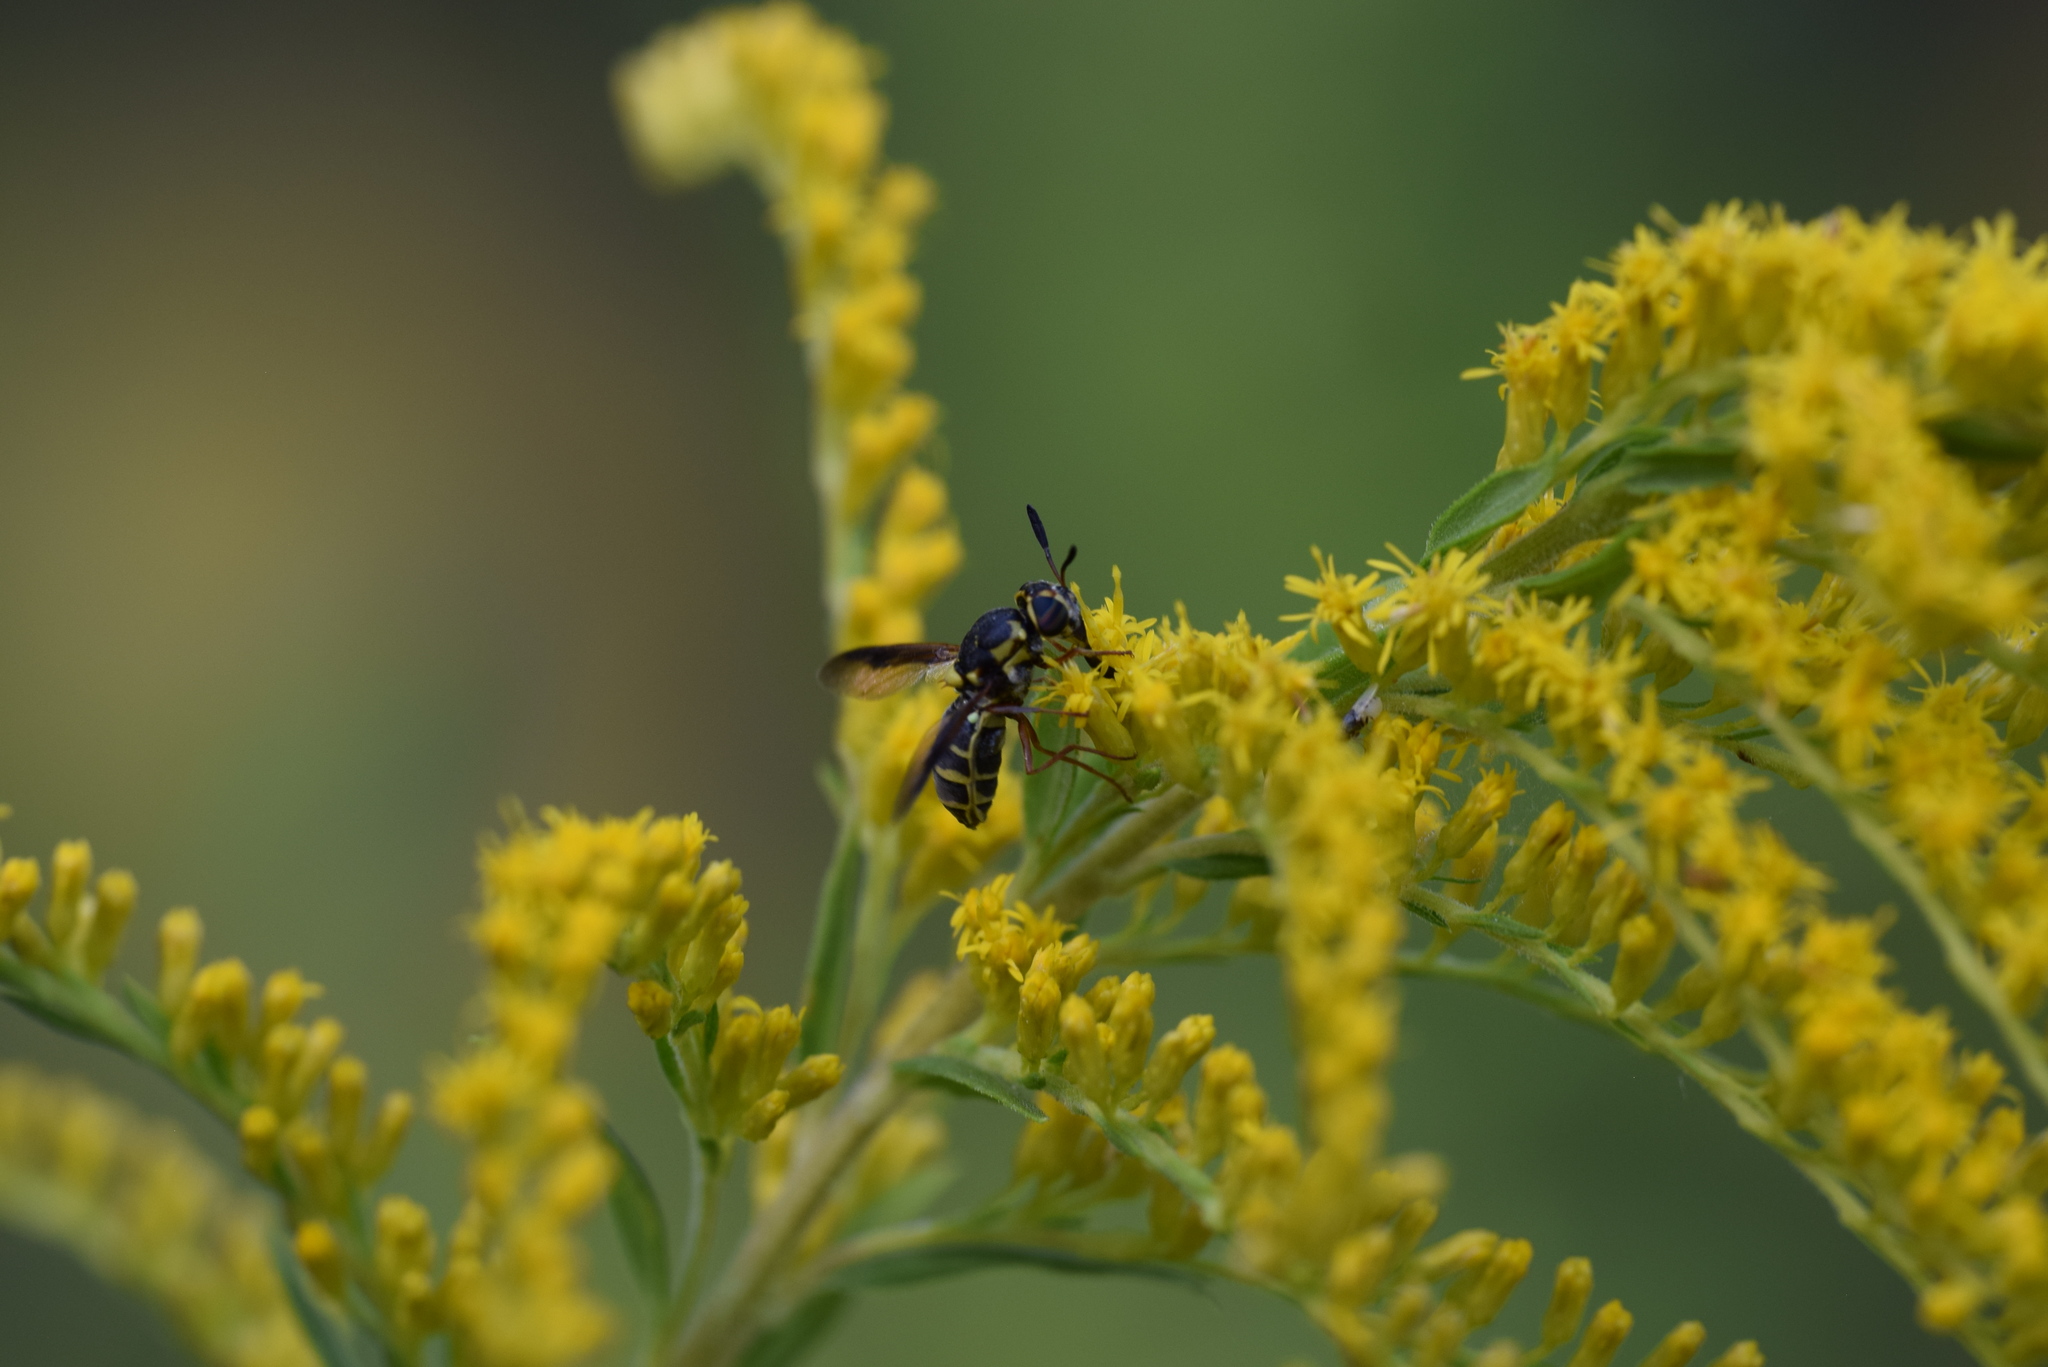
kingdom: Animalia
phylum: Arthropoda
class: Insecta
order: Diptera
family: Stratiomyidae
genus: Hoplitimyia
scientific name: Hoplitimyia constans
